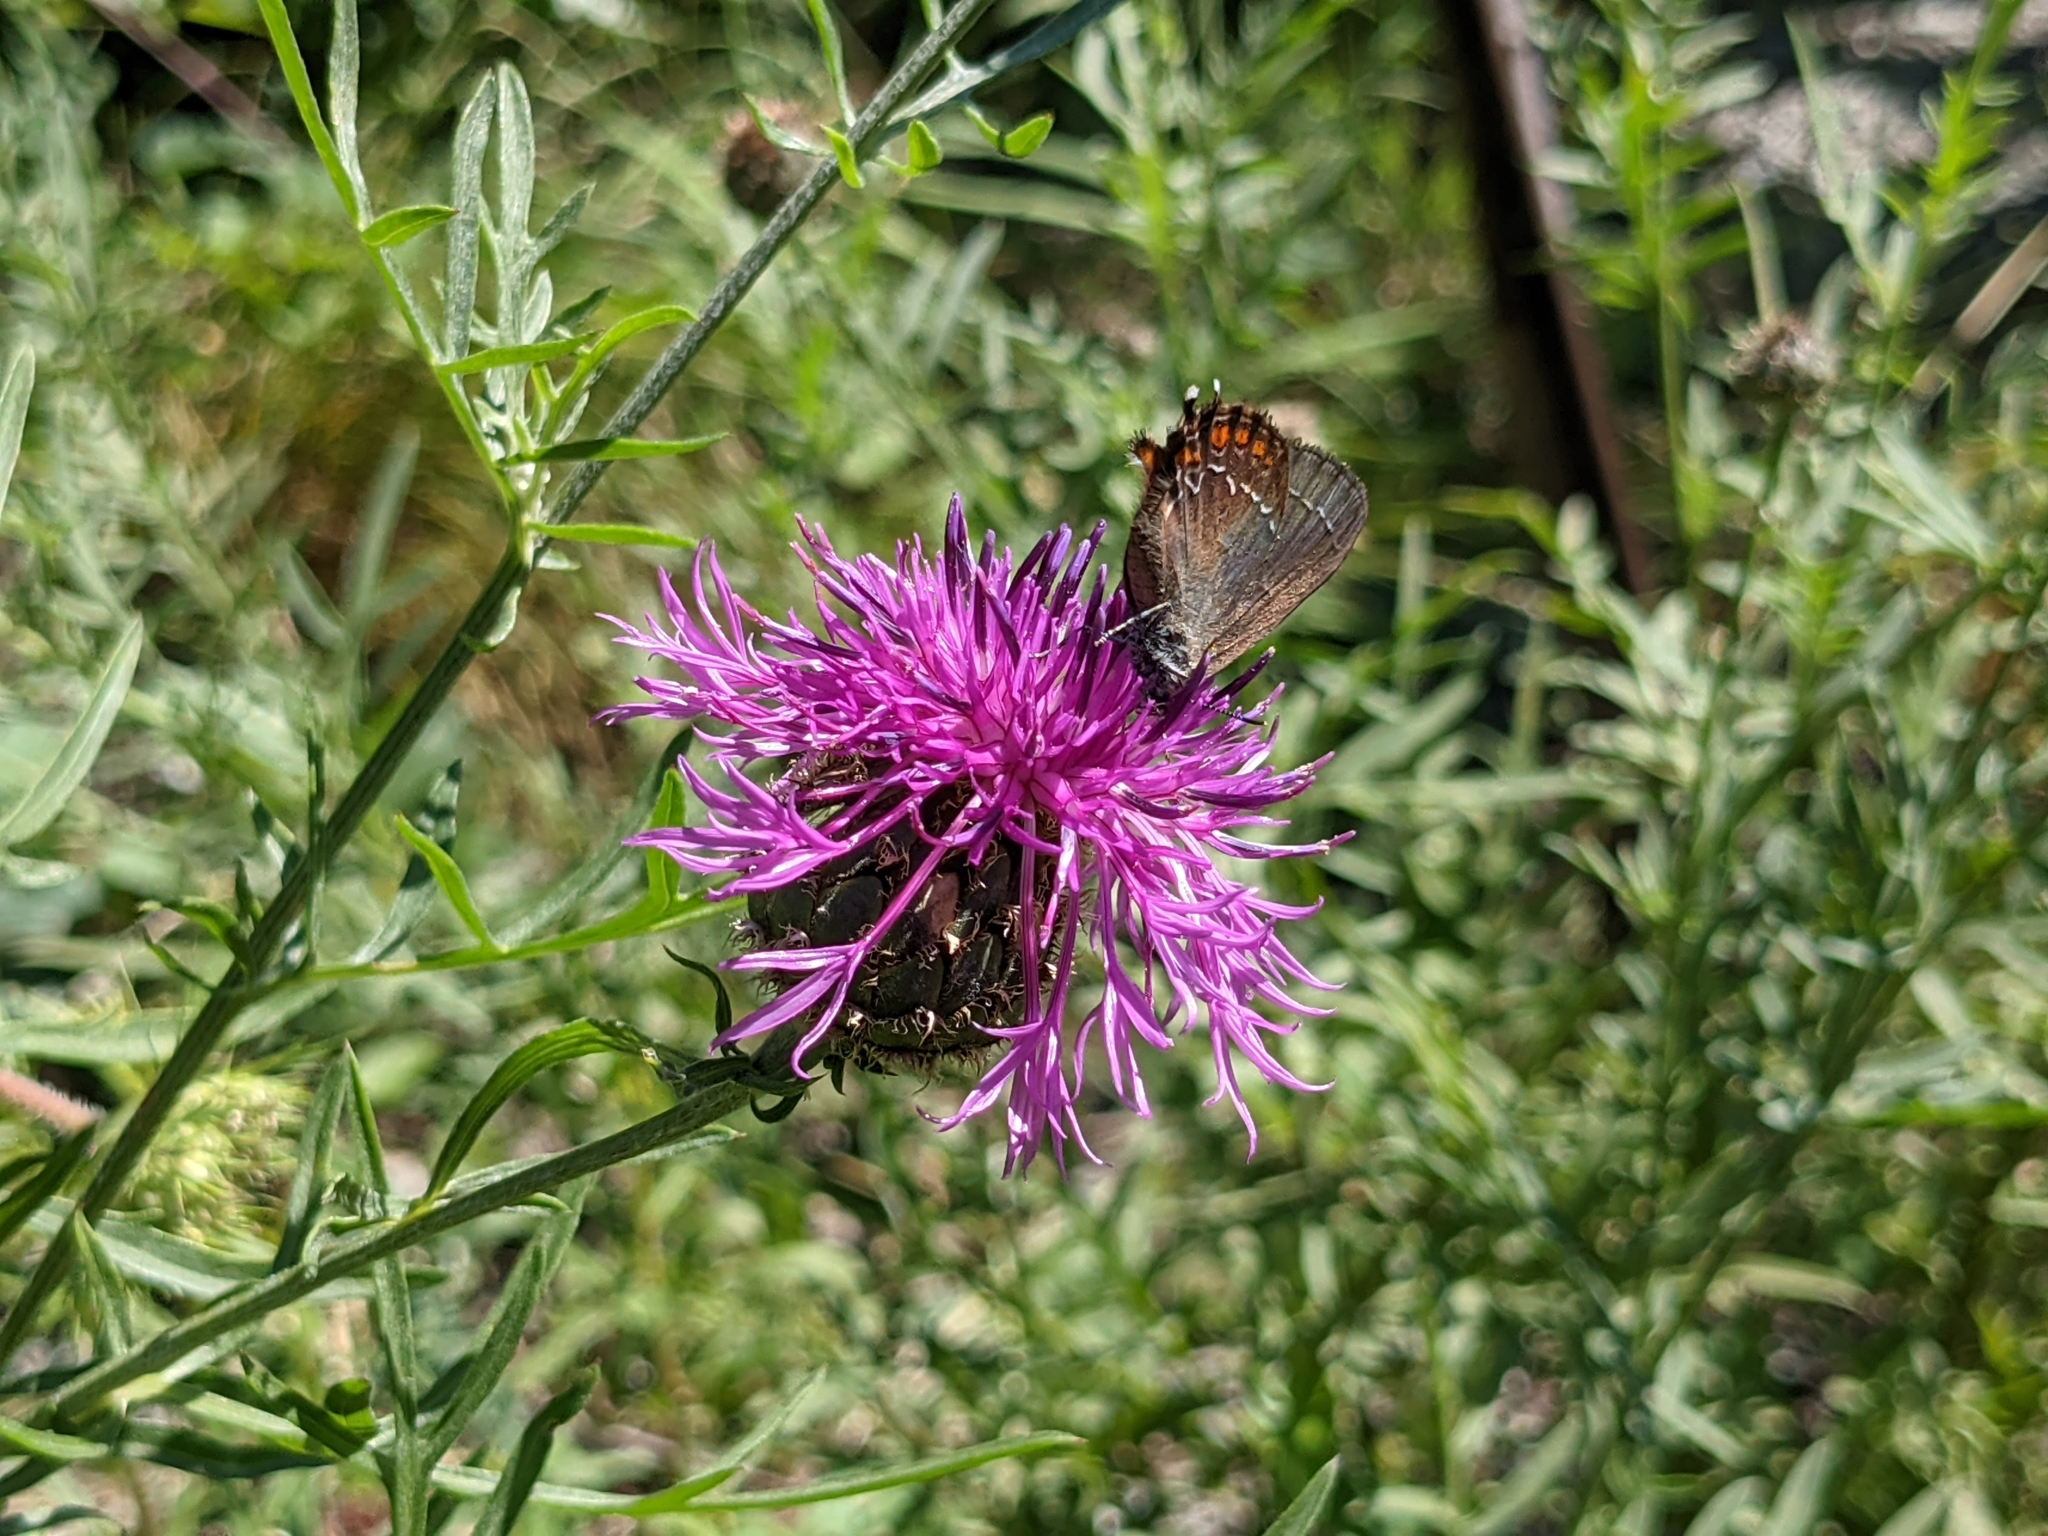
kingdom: Animalia
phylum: Arthropoda
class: Insecta
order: Lepidoptera
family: Lycaenidae
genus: Nordmannia
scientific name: Nordmannia ilicis
